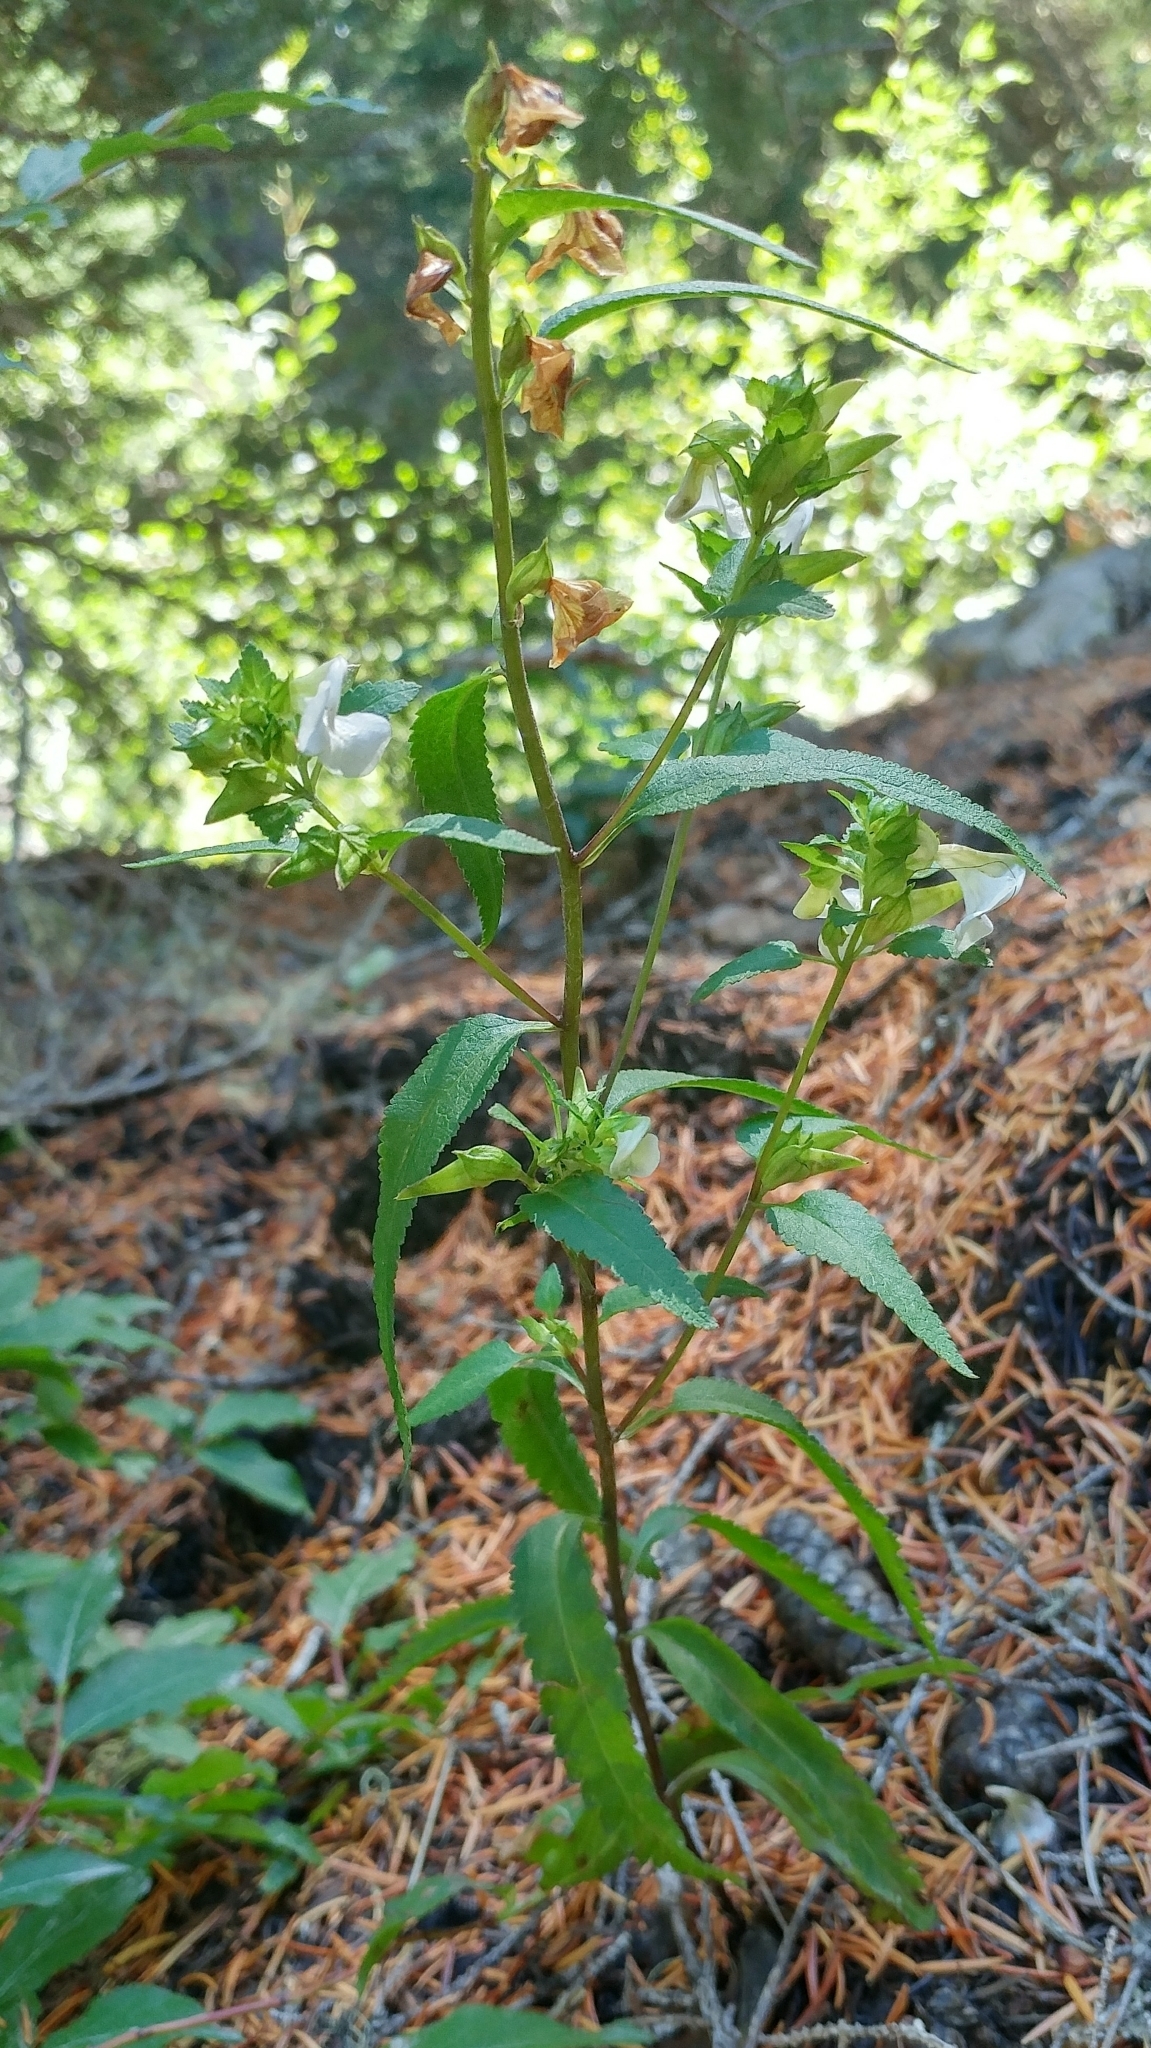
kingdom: Plantae
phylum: Tracheophyta
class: Magnoliopsida
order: Lamiales
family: Orobanchaceae
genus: Pedicularis
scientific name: Pedicularis racemosa
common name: Leafy lousewort
